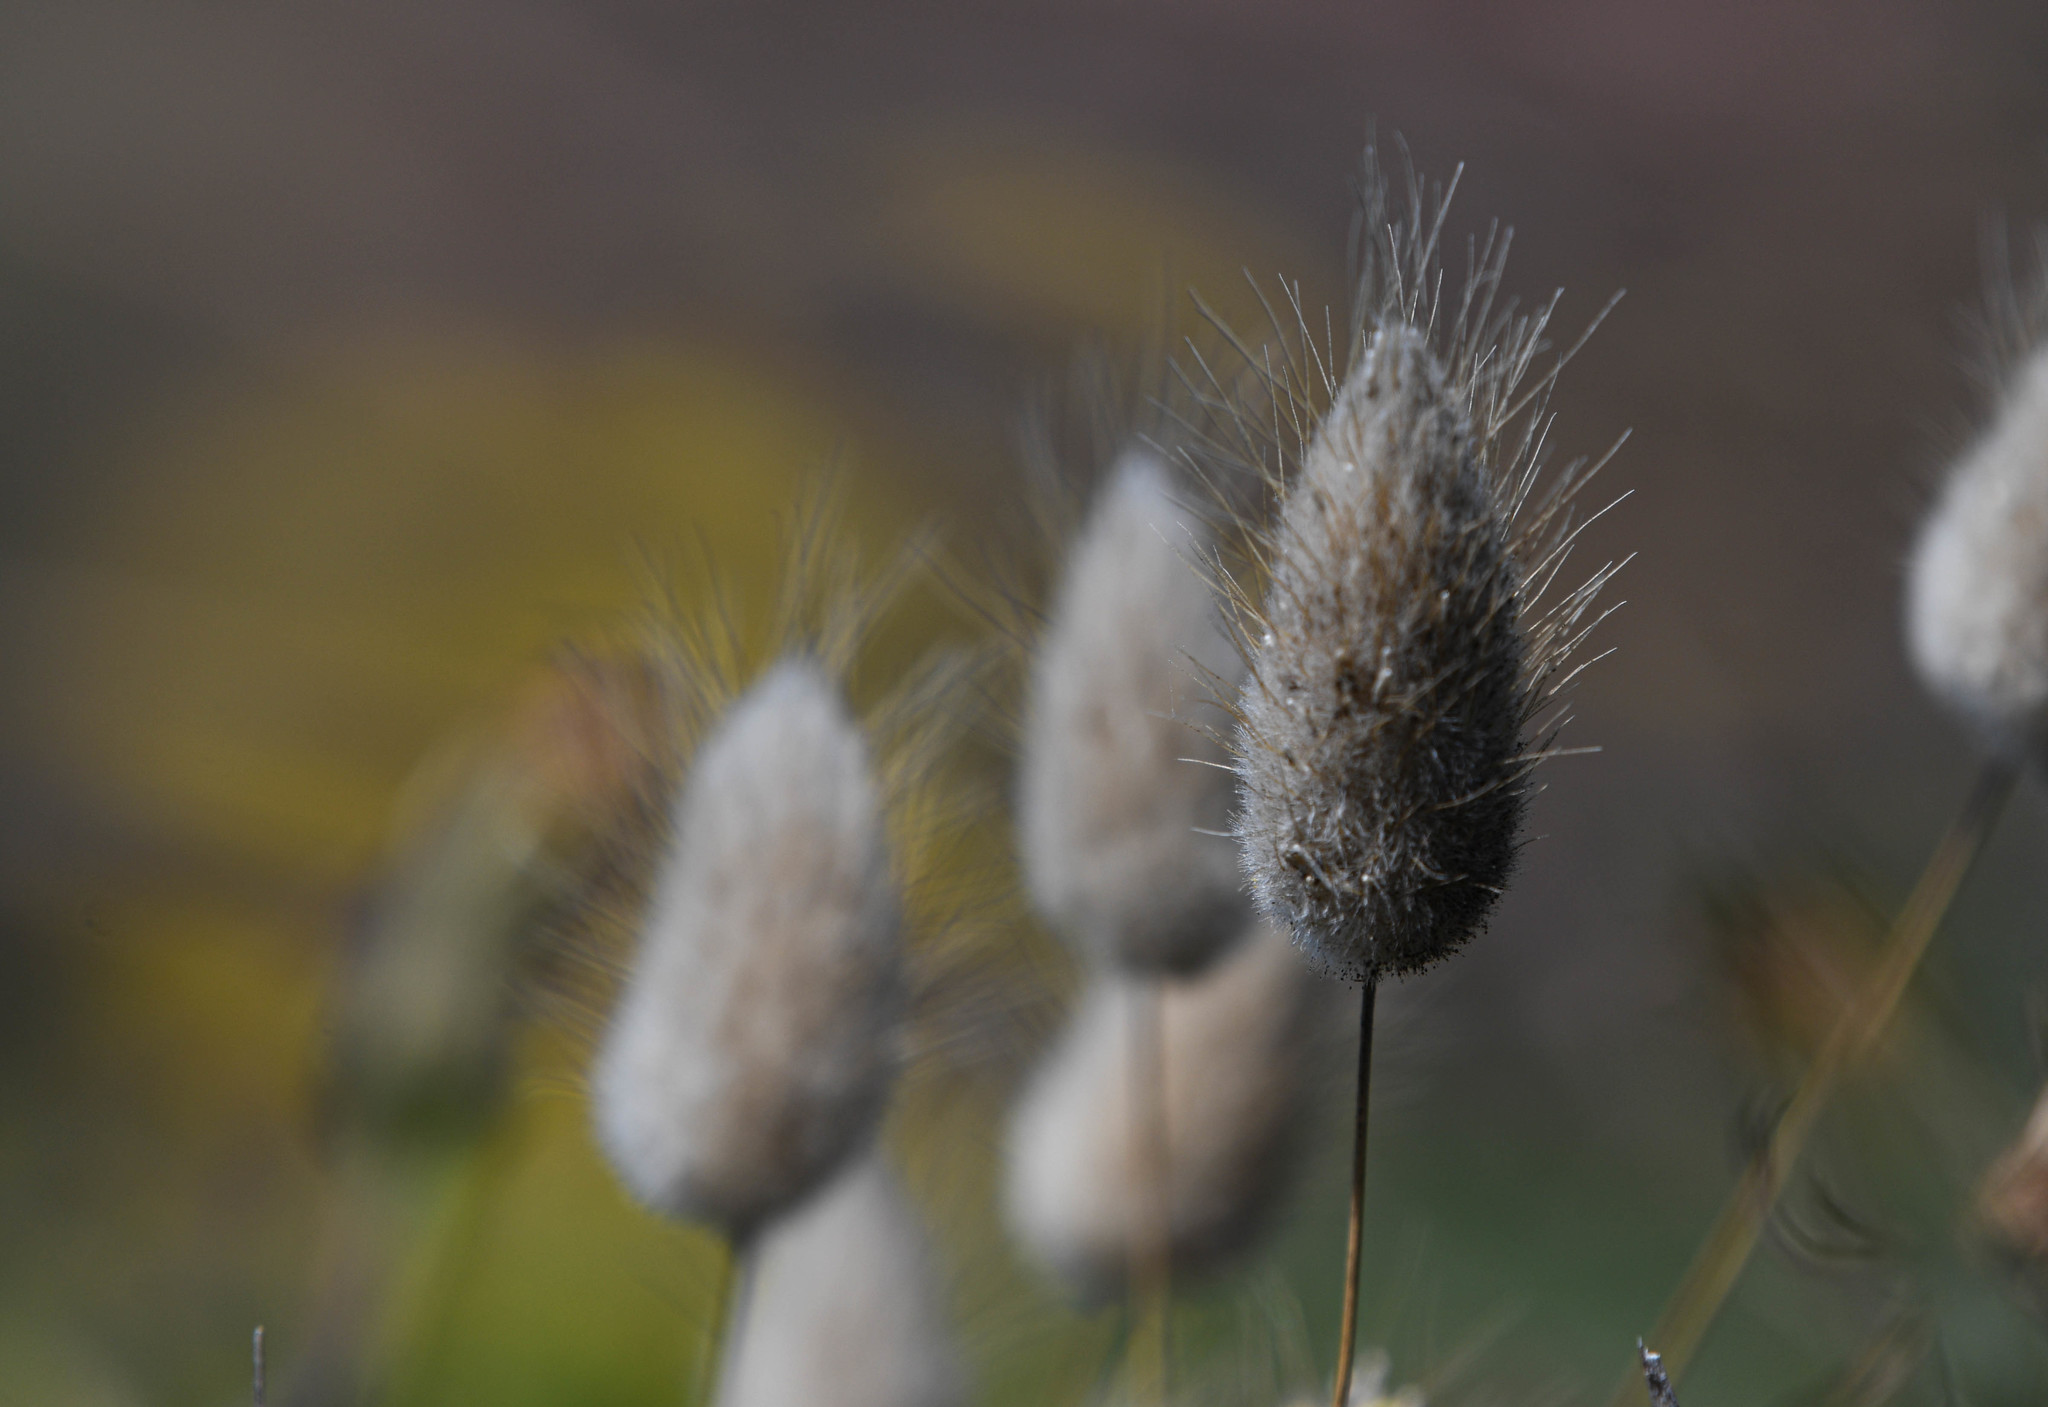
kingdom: Plantae
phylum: Tracheophyta
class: Liliopsida
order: Poales
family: Poaceae
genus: Lagurus
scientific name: Lagurus ovatus
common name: Hare's-tail
